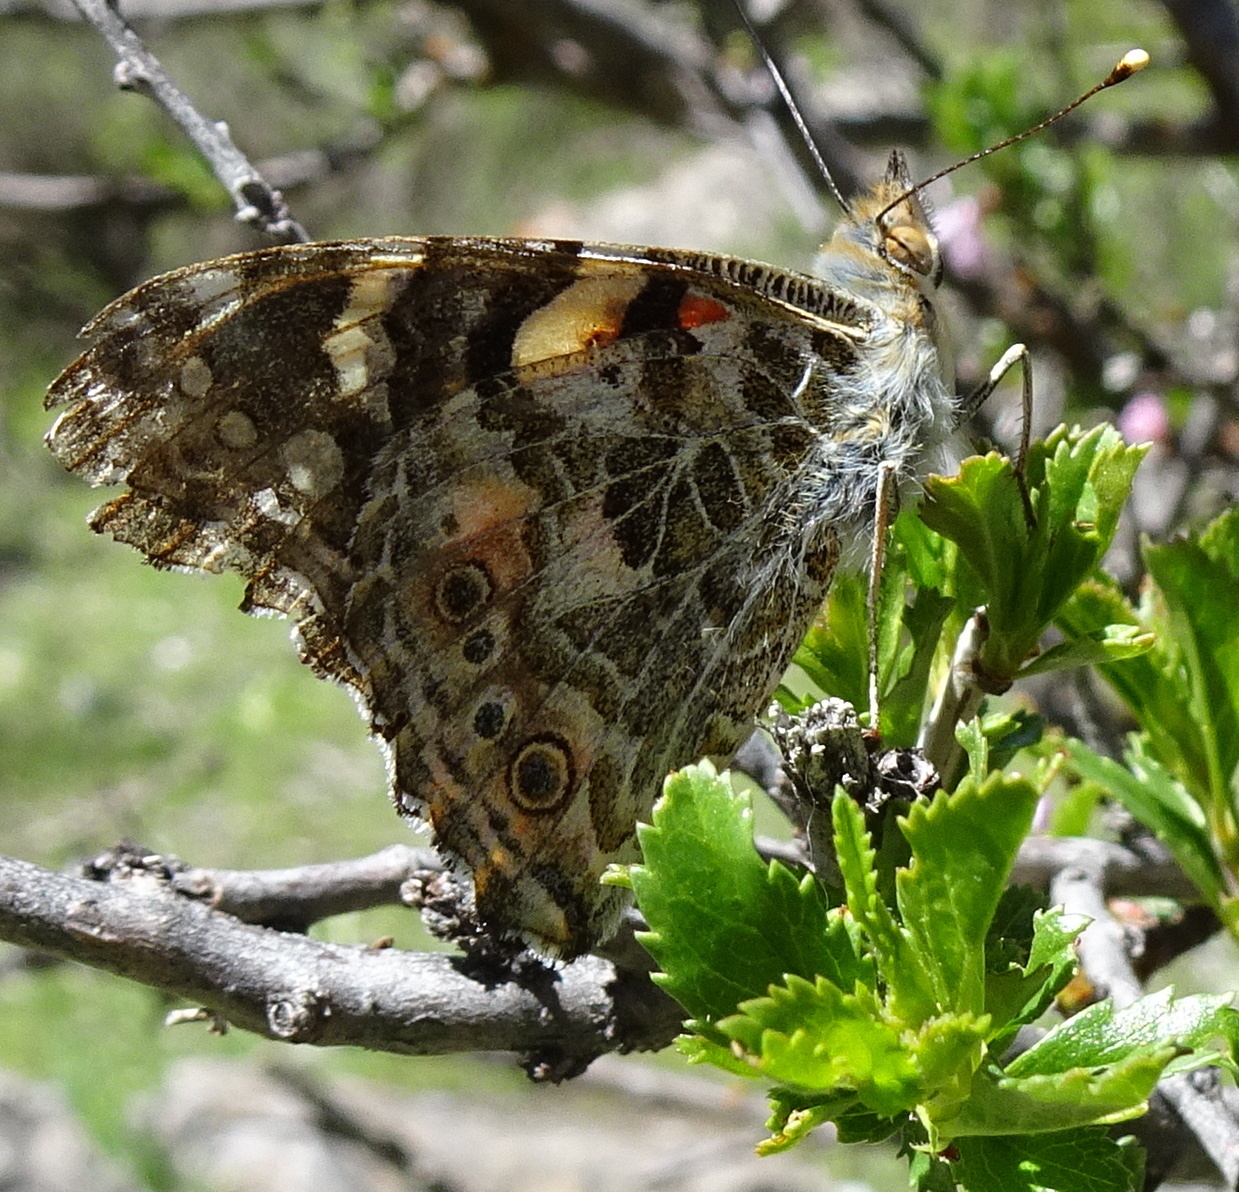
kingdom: Animalia
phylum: Arthropoda
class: Insecta
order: Lepidoptera
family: Nymphalidae
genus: Vanessa
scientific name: Vanessa cardui
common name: Painted lady
